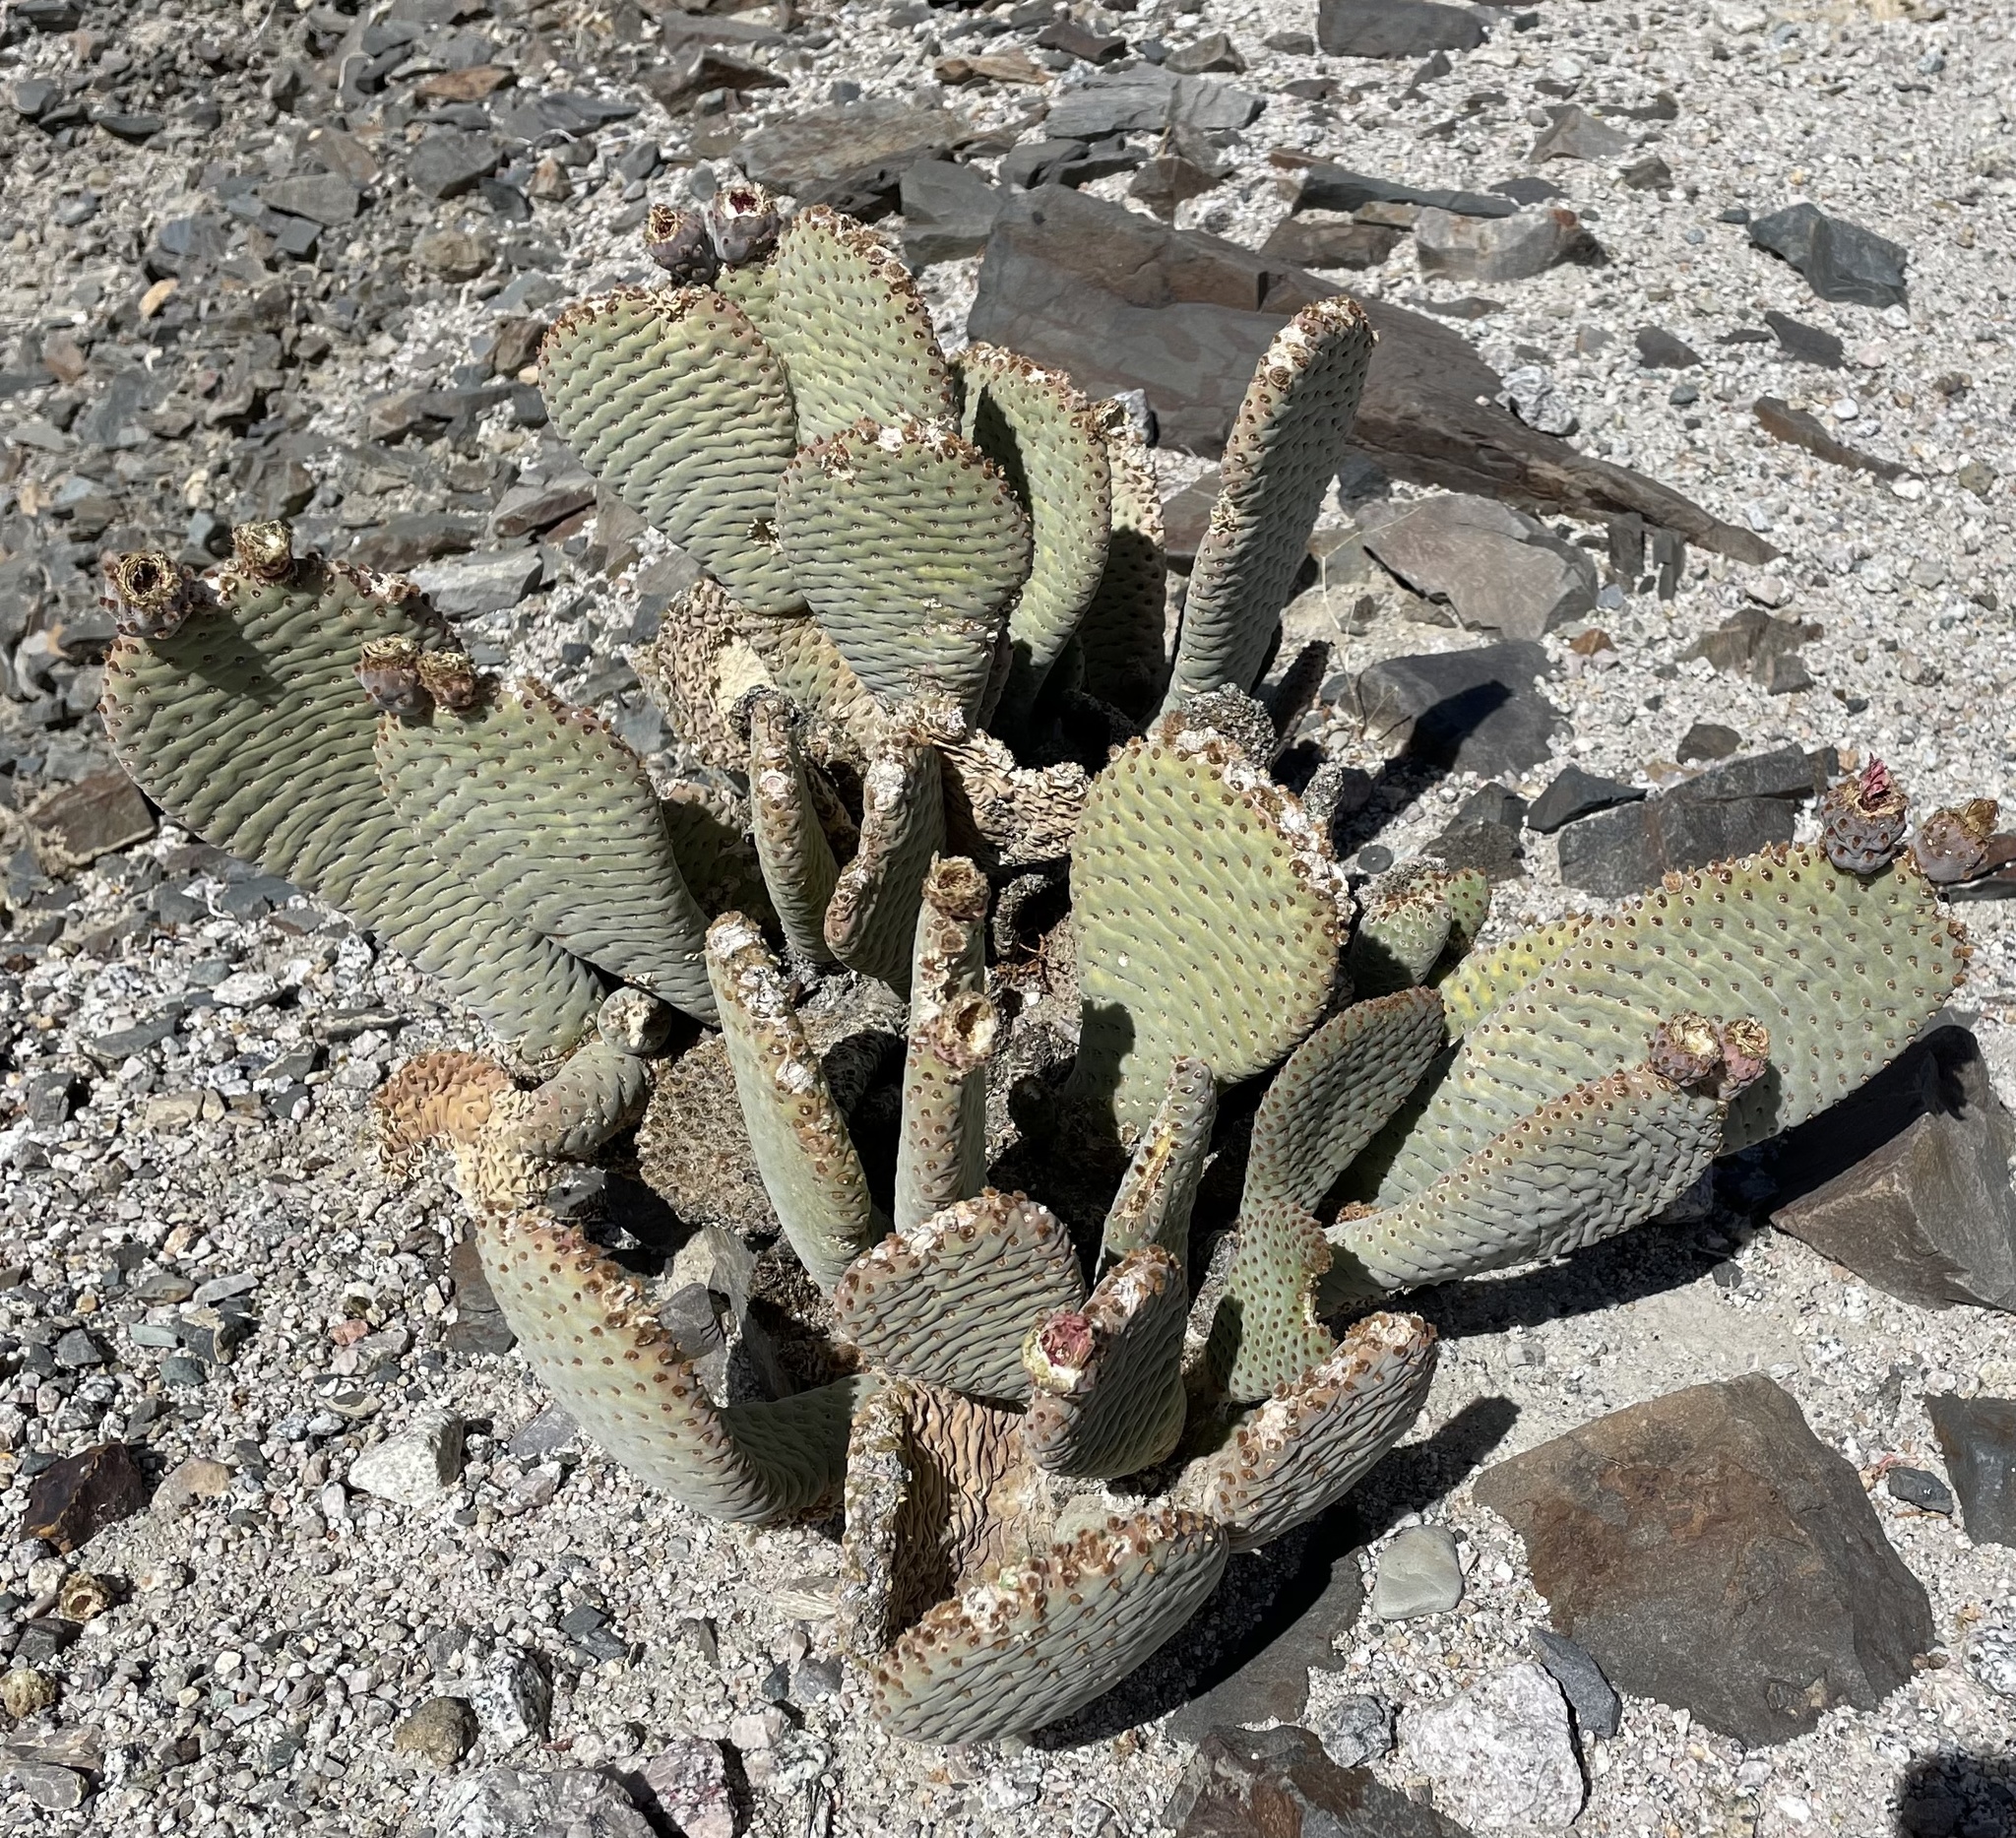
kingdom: Plantae
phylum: Tracheophyta
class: Magnoliopsida
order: Caryophyllales
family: Cactaceae
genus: Opuntia
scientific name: Opuntia basilaris
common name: Beavertail prickly-pear
